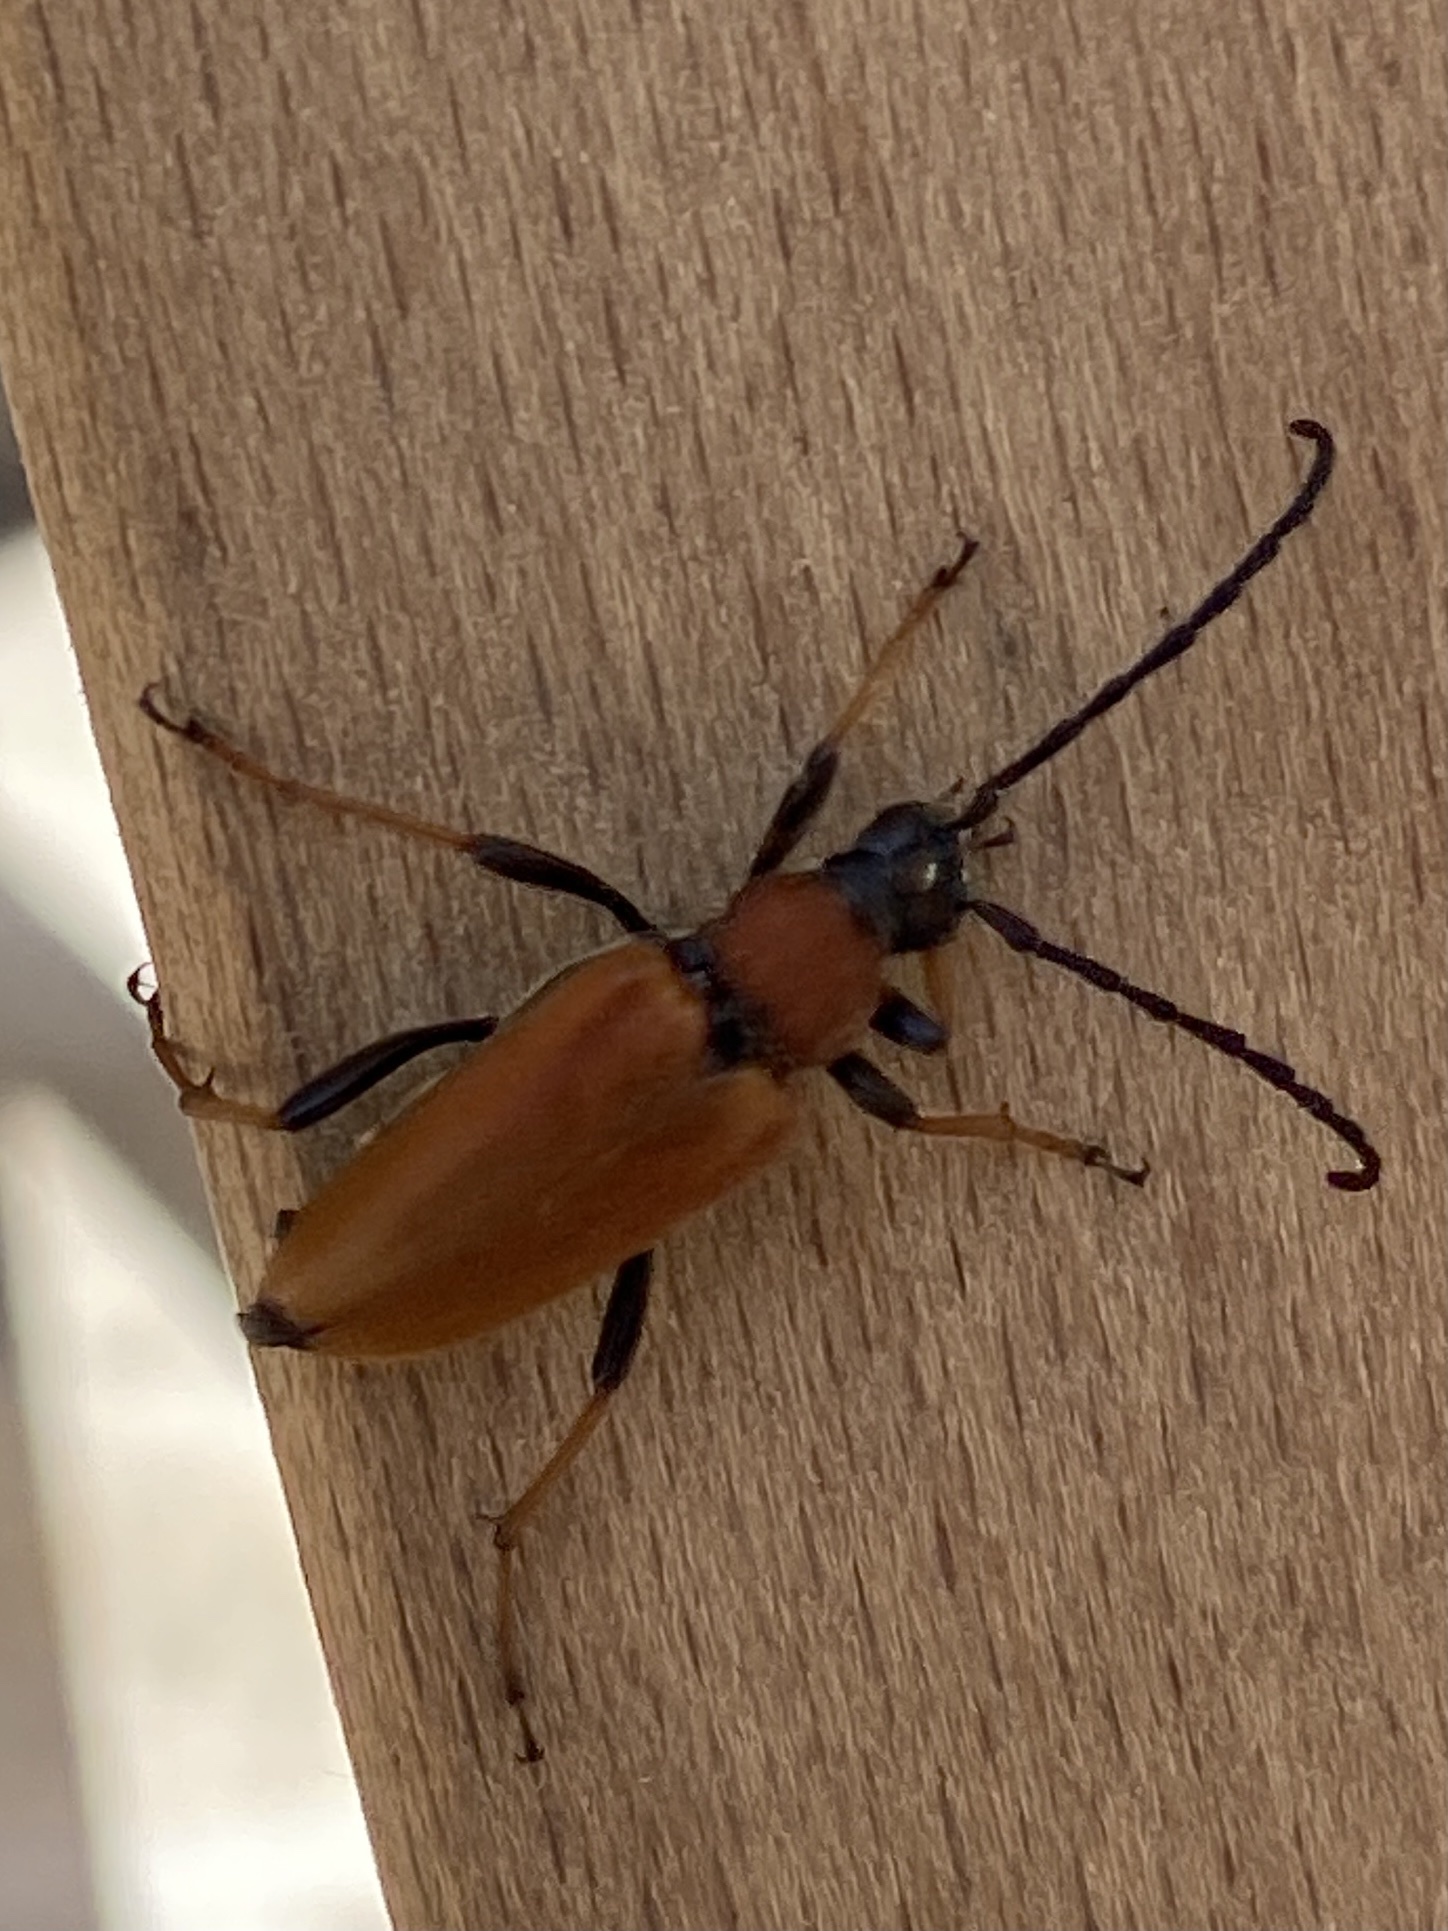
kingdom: Animalia
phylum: Arthropoda
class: Insecta
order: Coleoptera
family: Cerambycidae
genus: Stictoleptura
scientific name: Stictoleptura rubra
